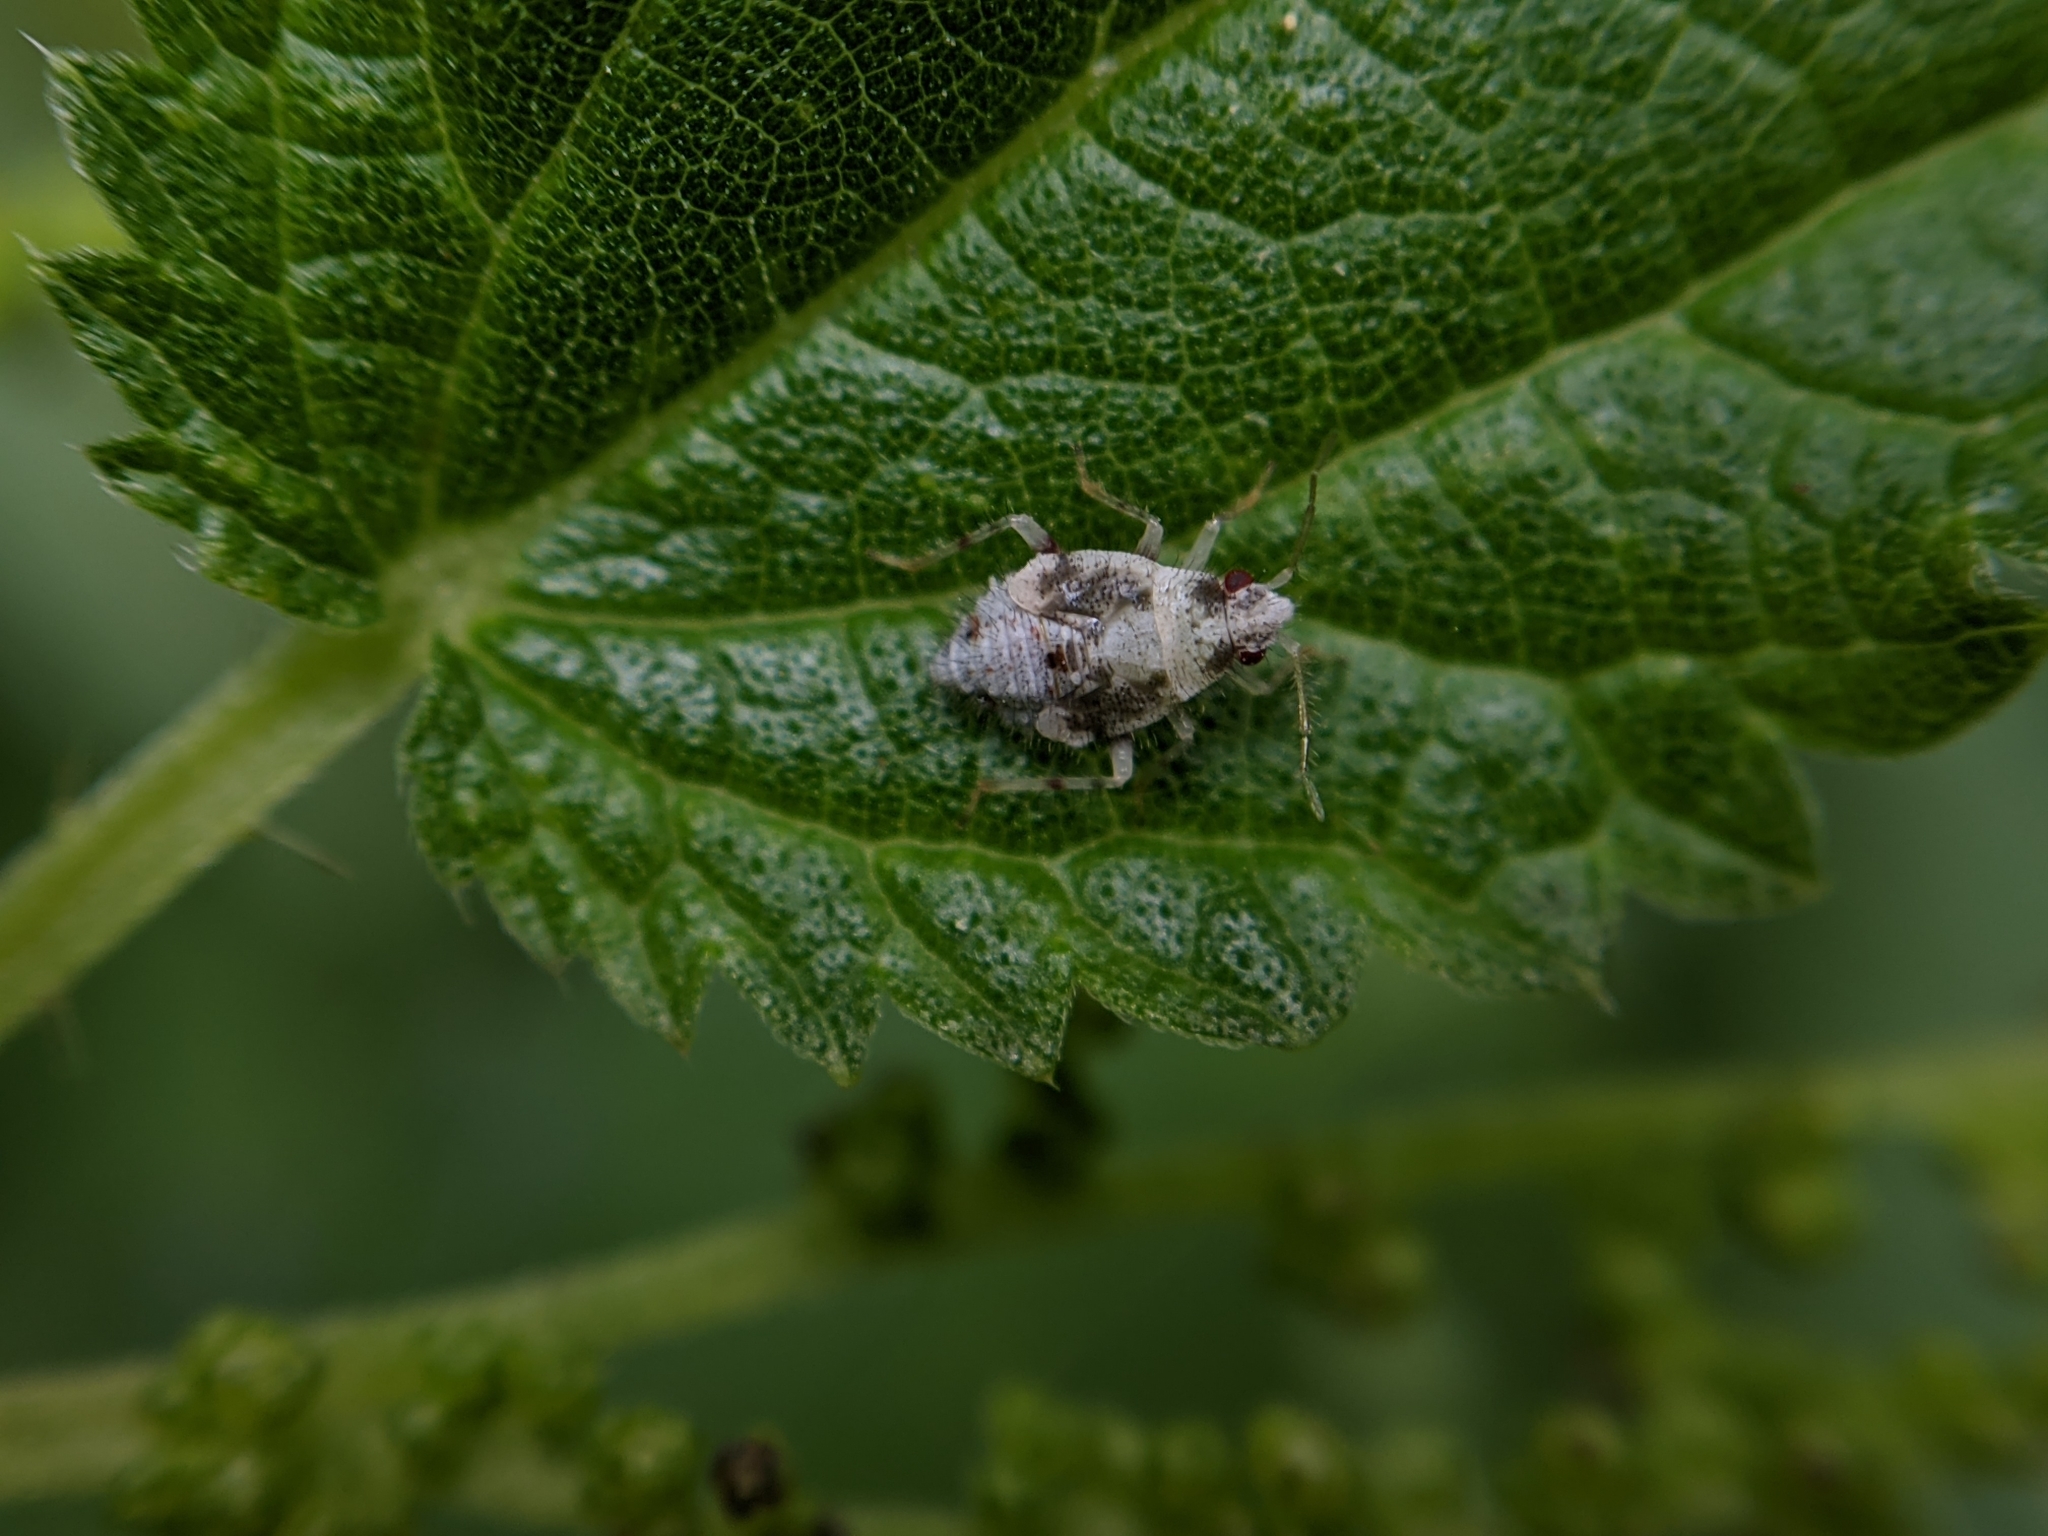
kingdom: Animalia
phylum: Arthropoda
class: Insecta
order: Hemiptera
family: Miridae
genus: Deraeocoris
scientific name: Deraeocoris lutescens
